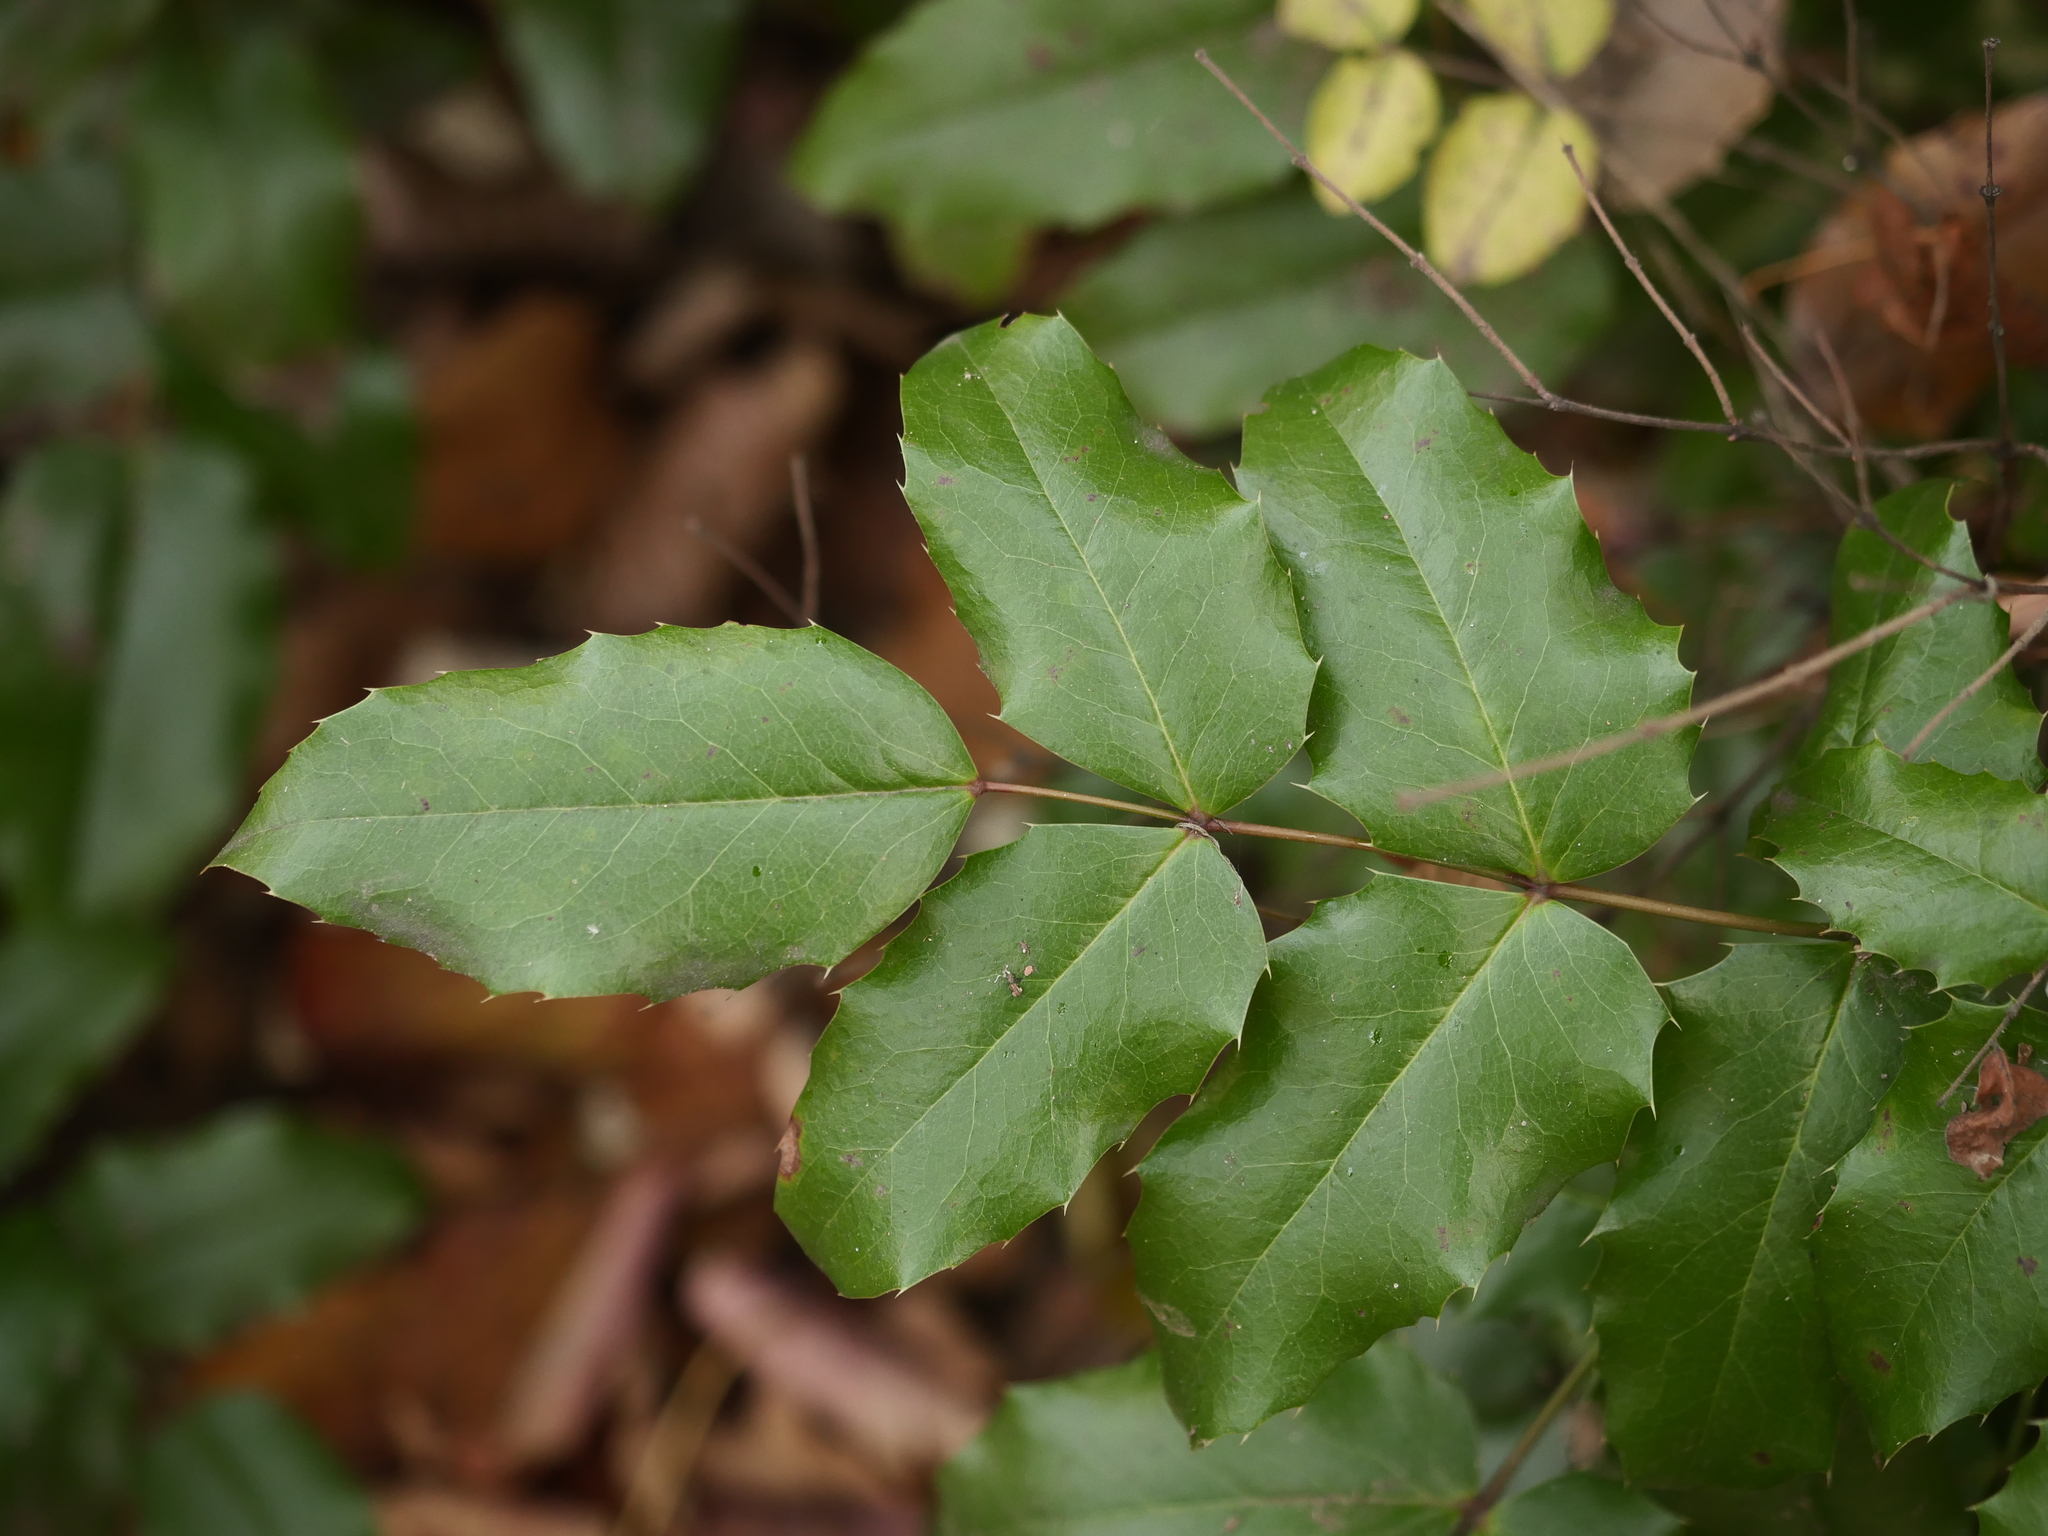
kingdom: Plantae
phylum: Tracheophyta
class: Magnoliopsida
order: Ranunculales
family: Berberidaceae
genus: Mahonia
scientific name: Mahonia aquifolium
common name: Oregon-grape
